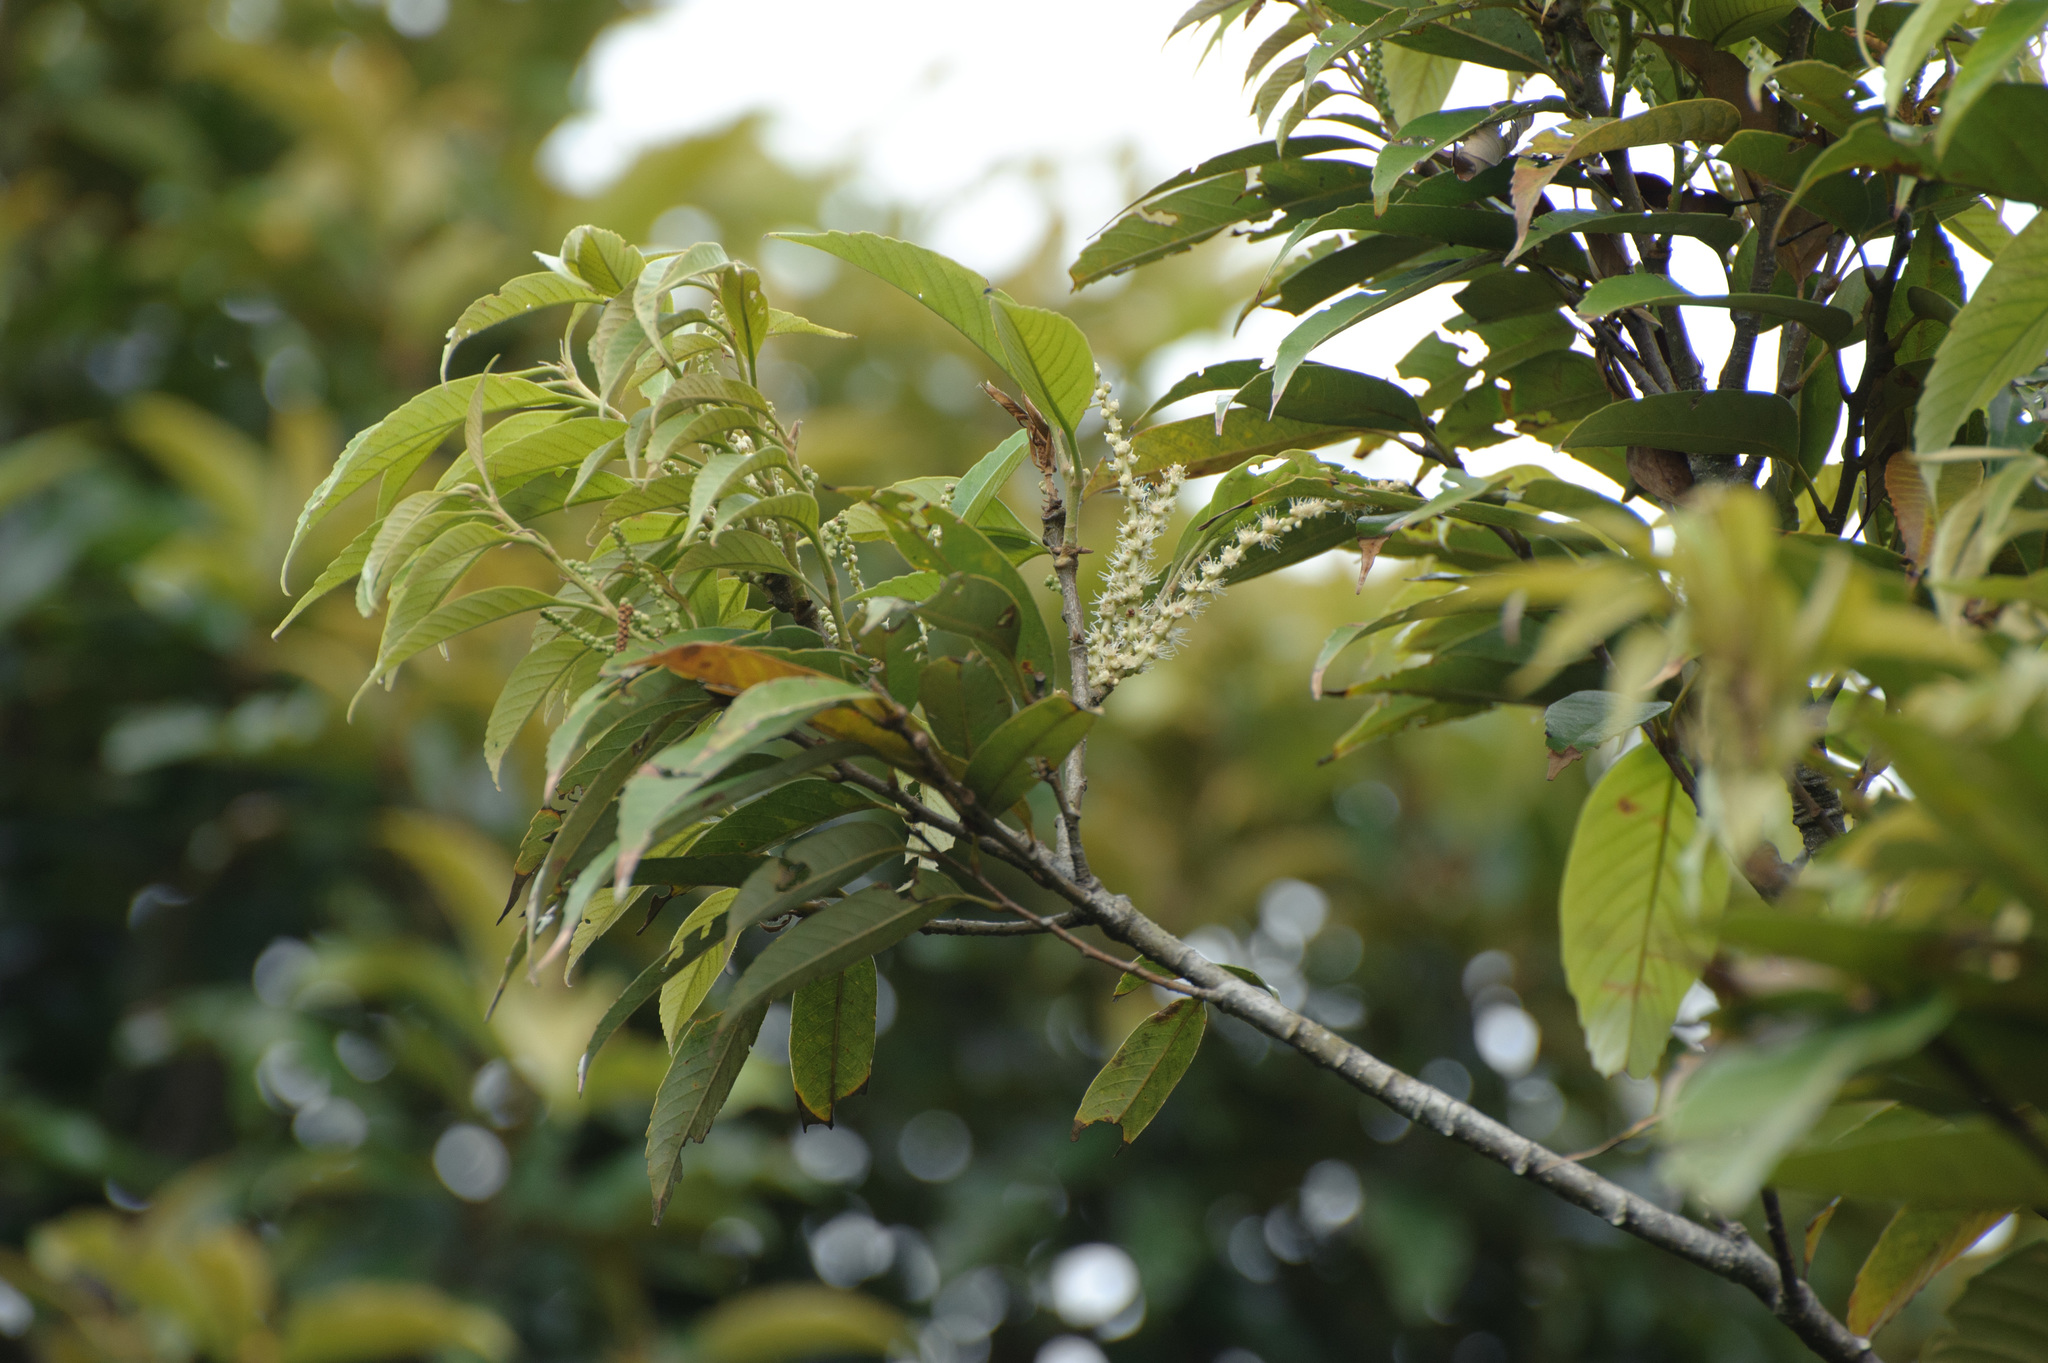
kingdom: Plantae
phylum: Tracheophyta
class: Magnoliopsida
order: Fagales
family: Fagaceae
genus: Castanopsis
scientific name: Castanopsis faberi
